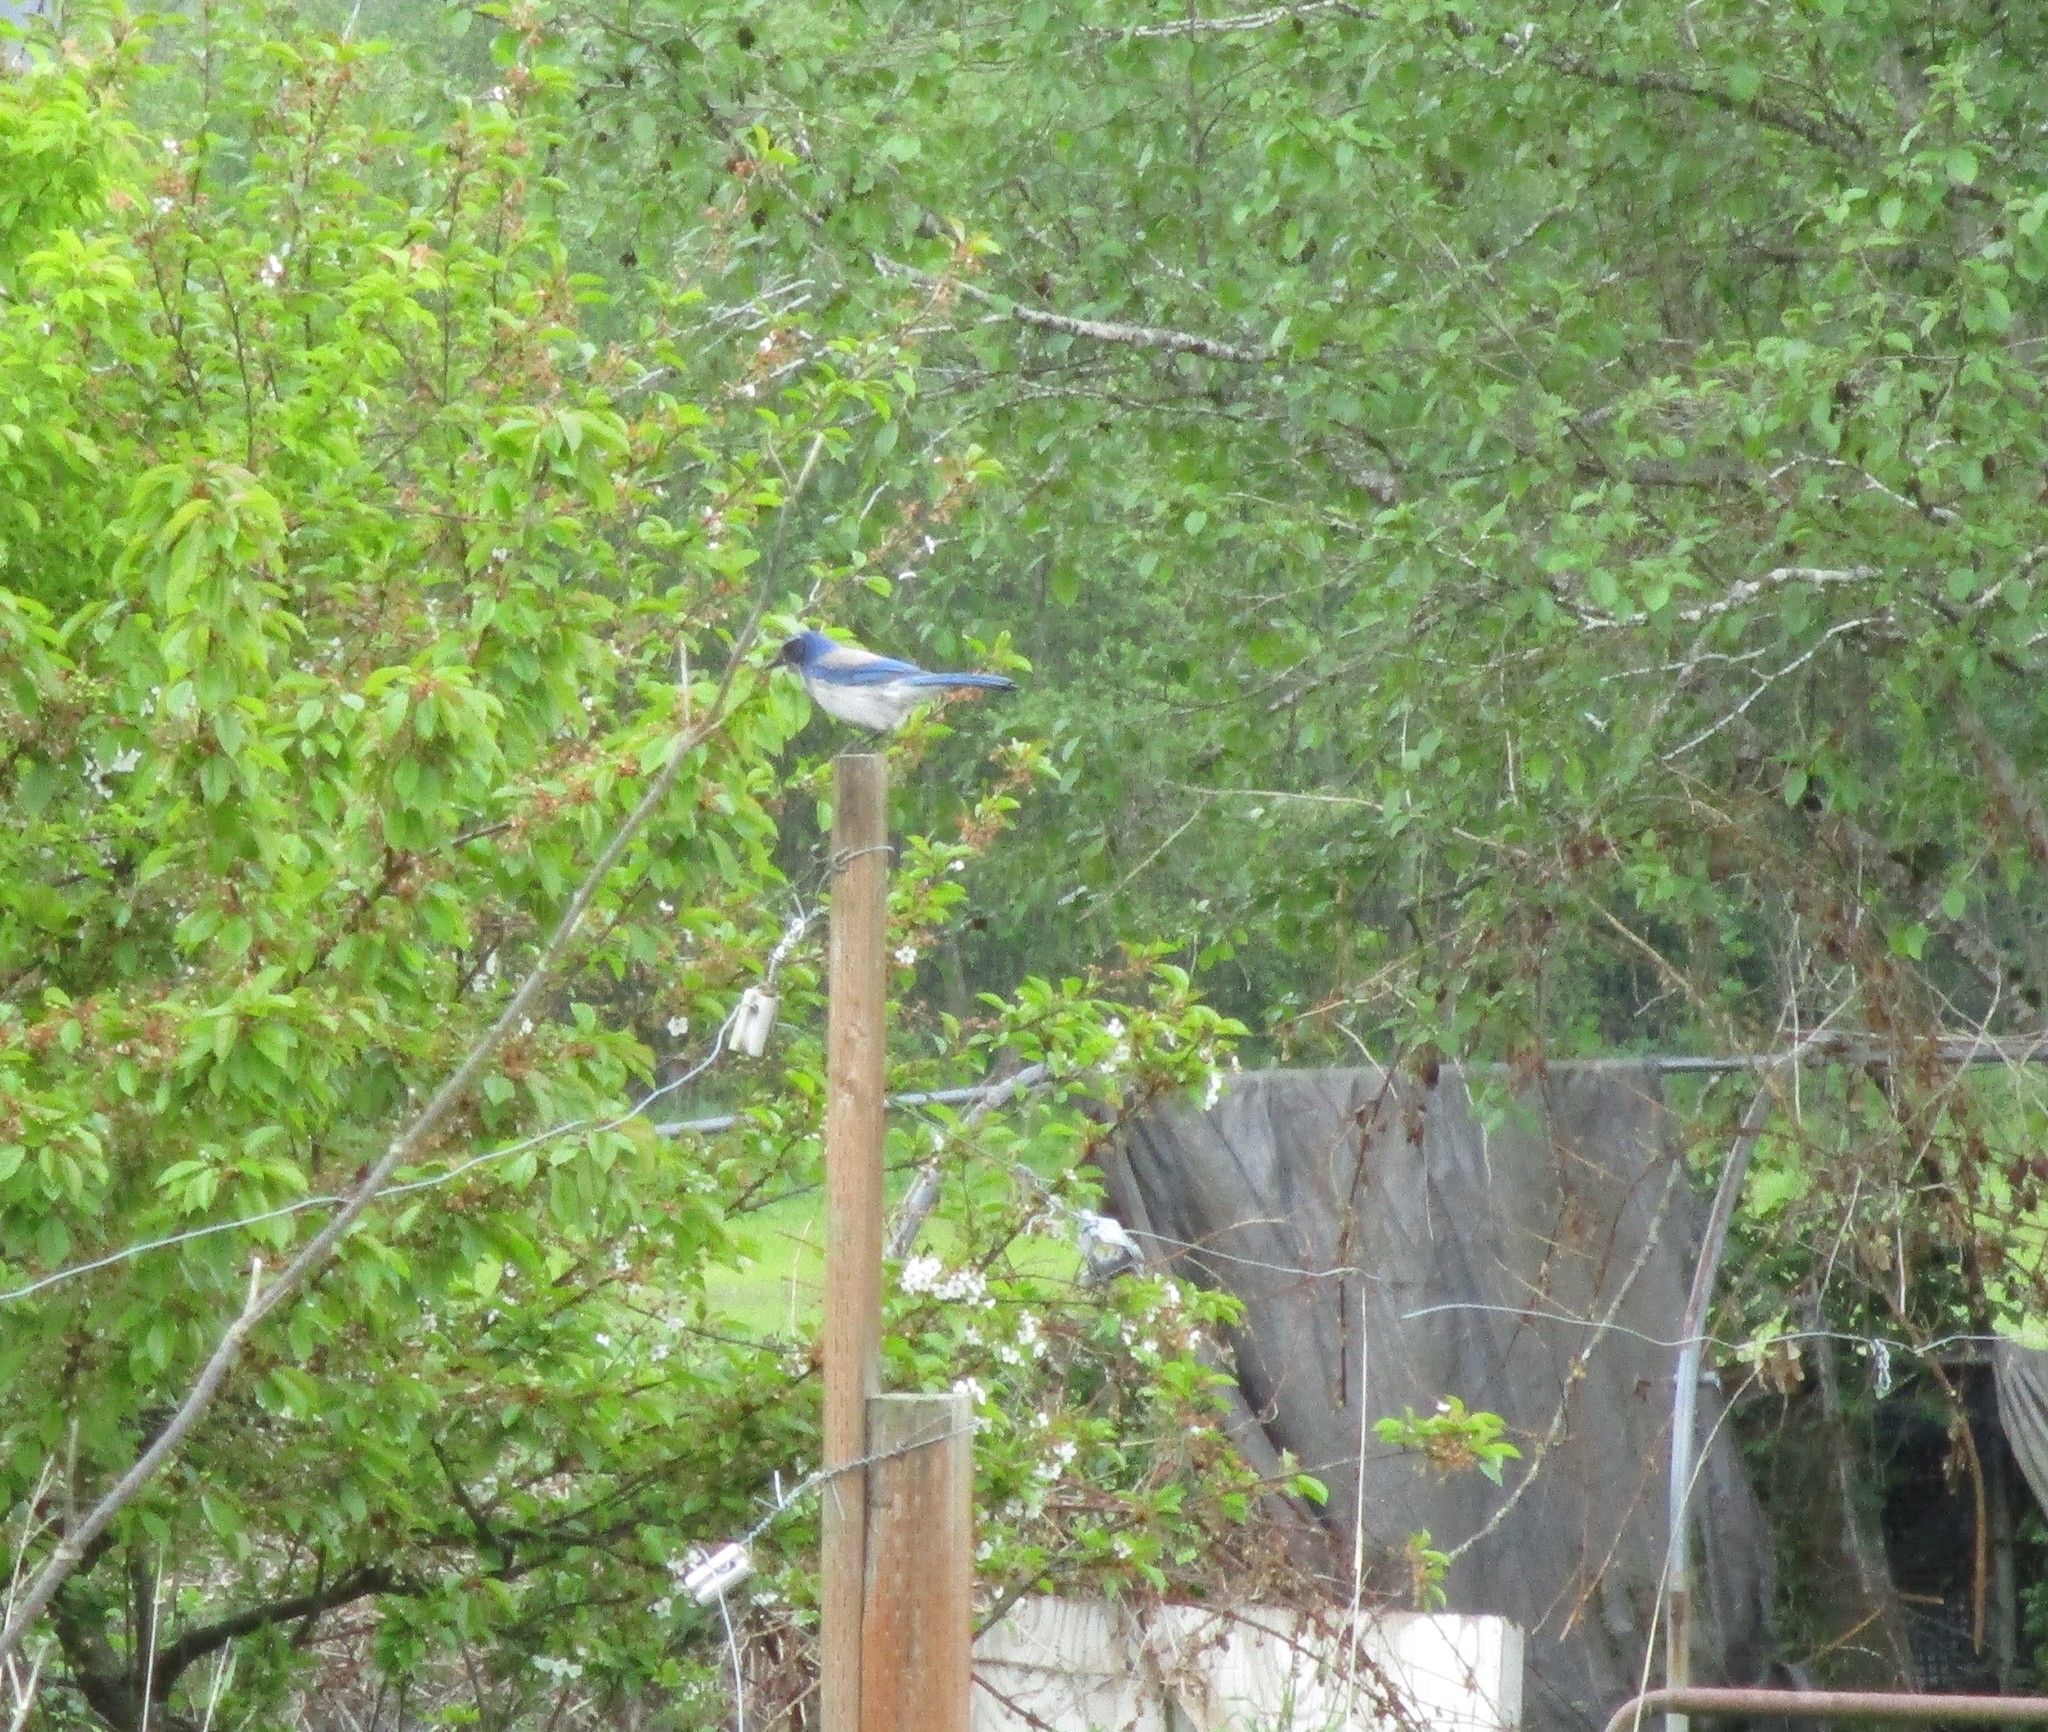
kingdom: Animalia
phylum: Chordata
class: Aves
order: Passeriformes
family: Corvidae
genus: Aphelocoma
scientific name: Aphelocoma californica
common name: California scrub-jay
